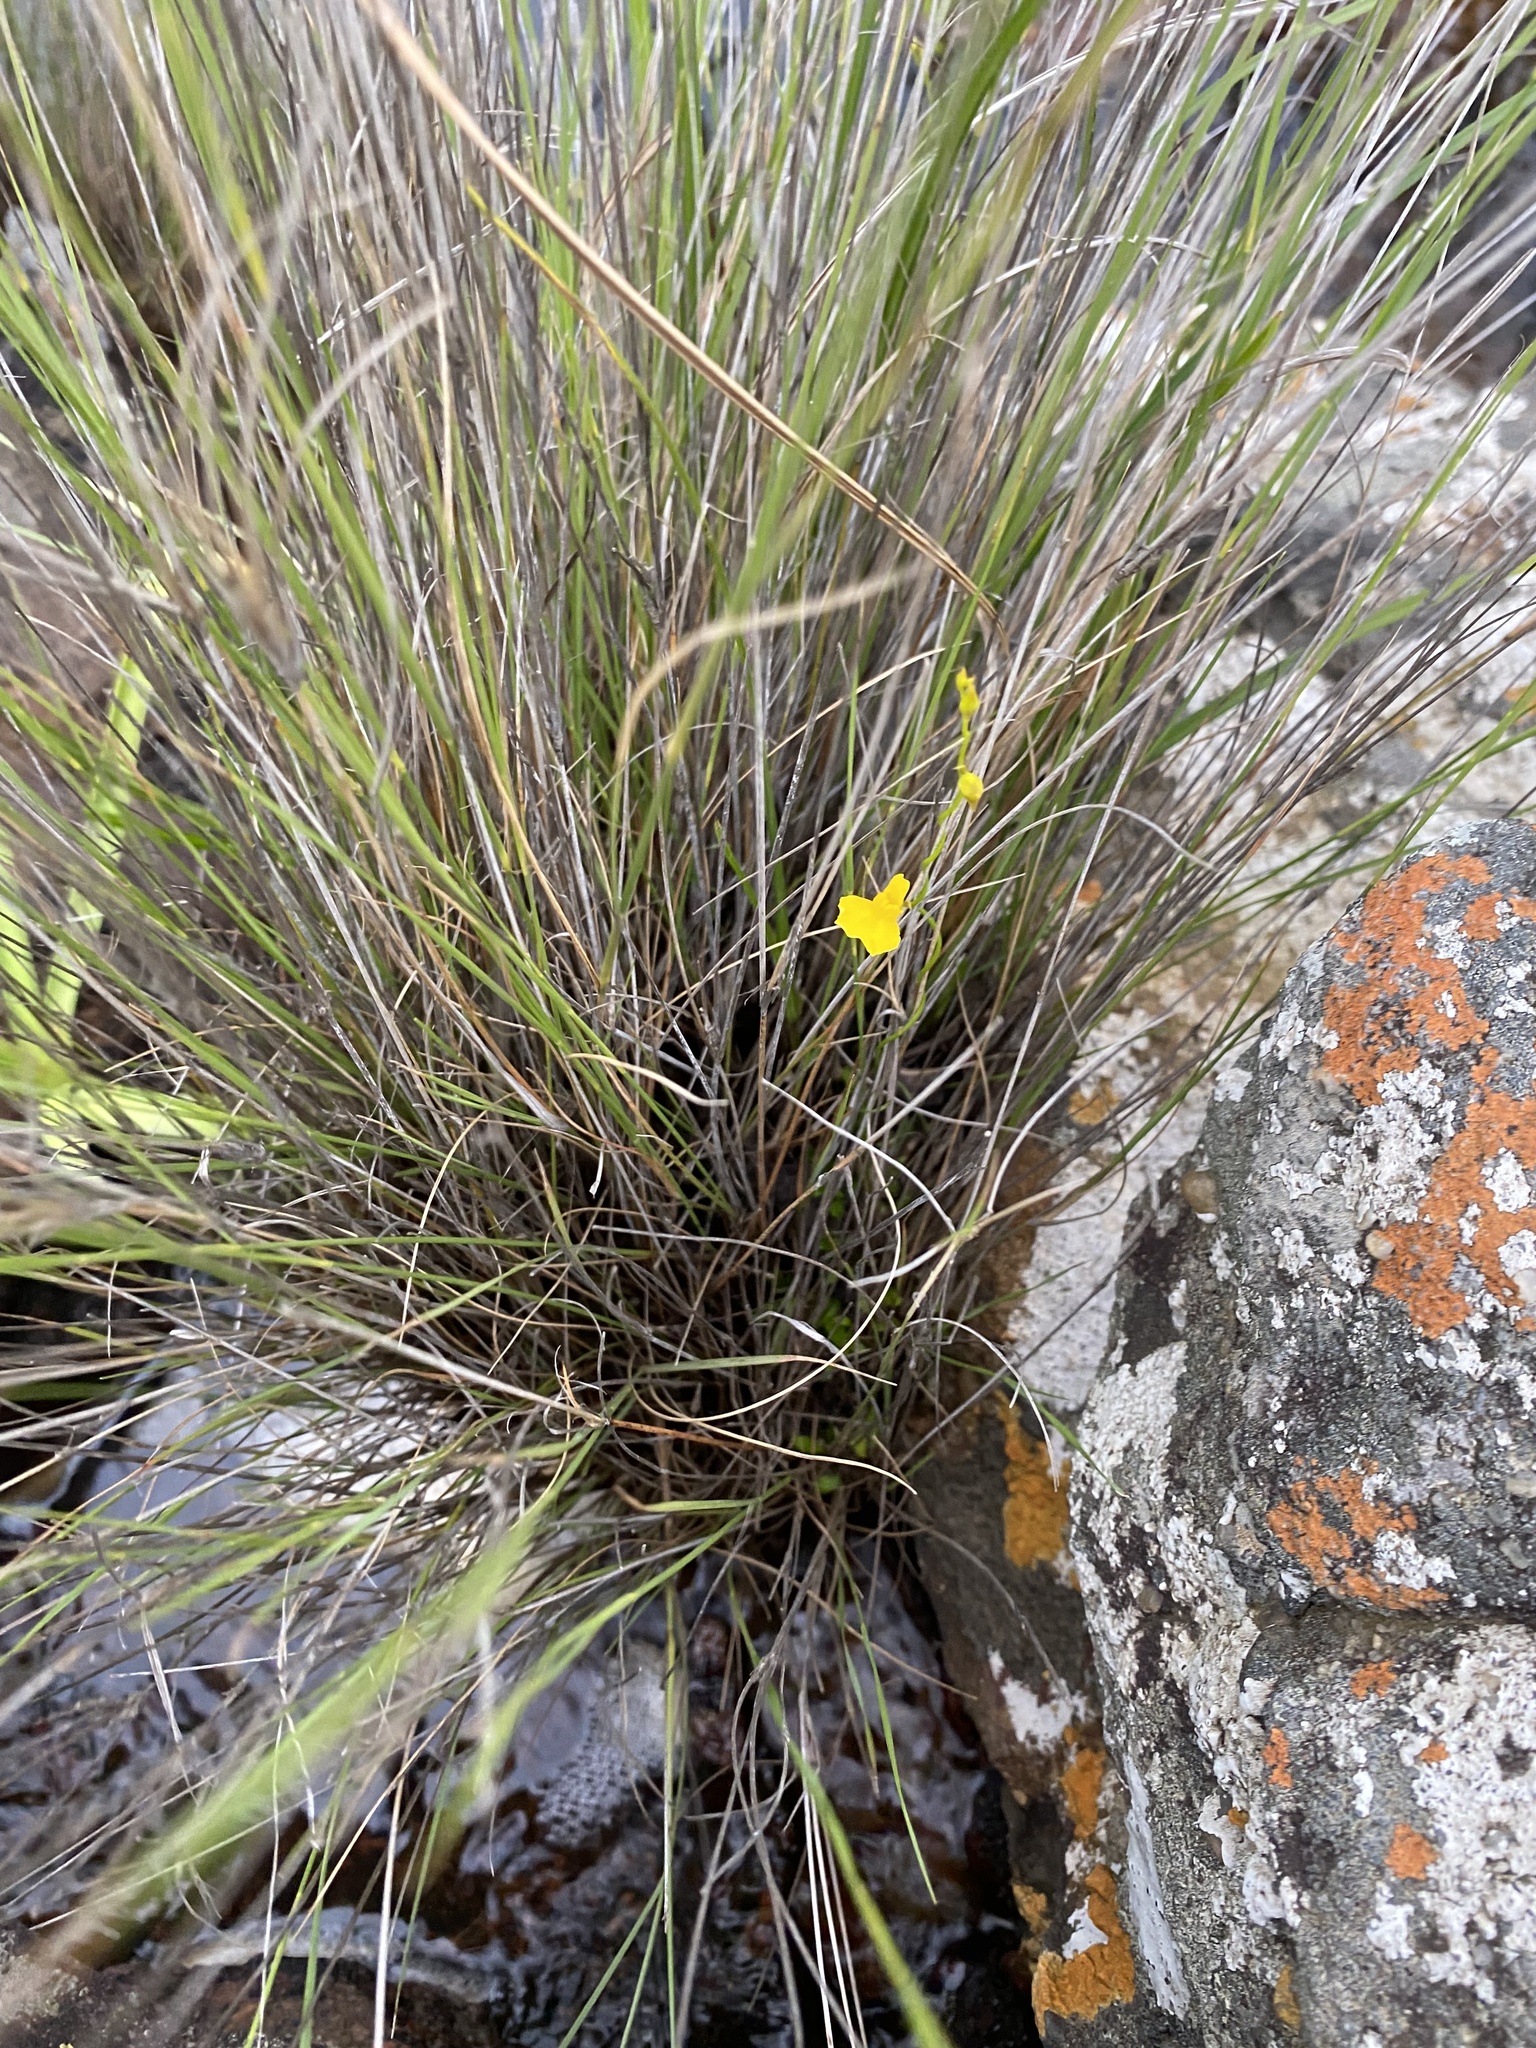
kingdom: Plantae
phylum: Tracheophyta
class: Magnoliopsida
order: Lamiales
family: Lentibulariaceae
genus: Utricularia
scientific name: Utricularia prehensilis
